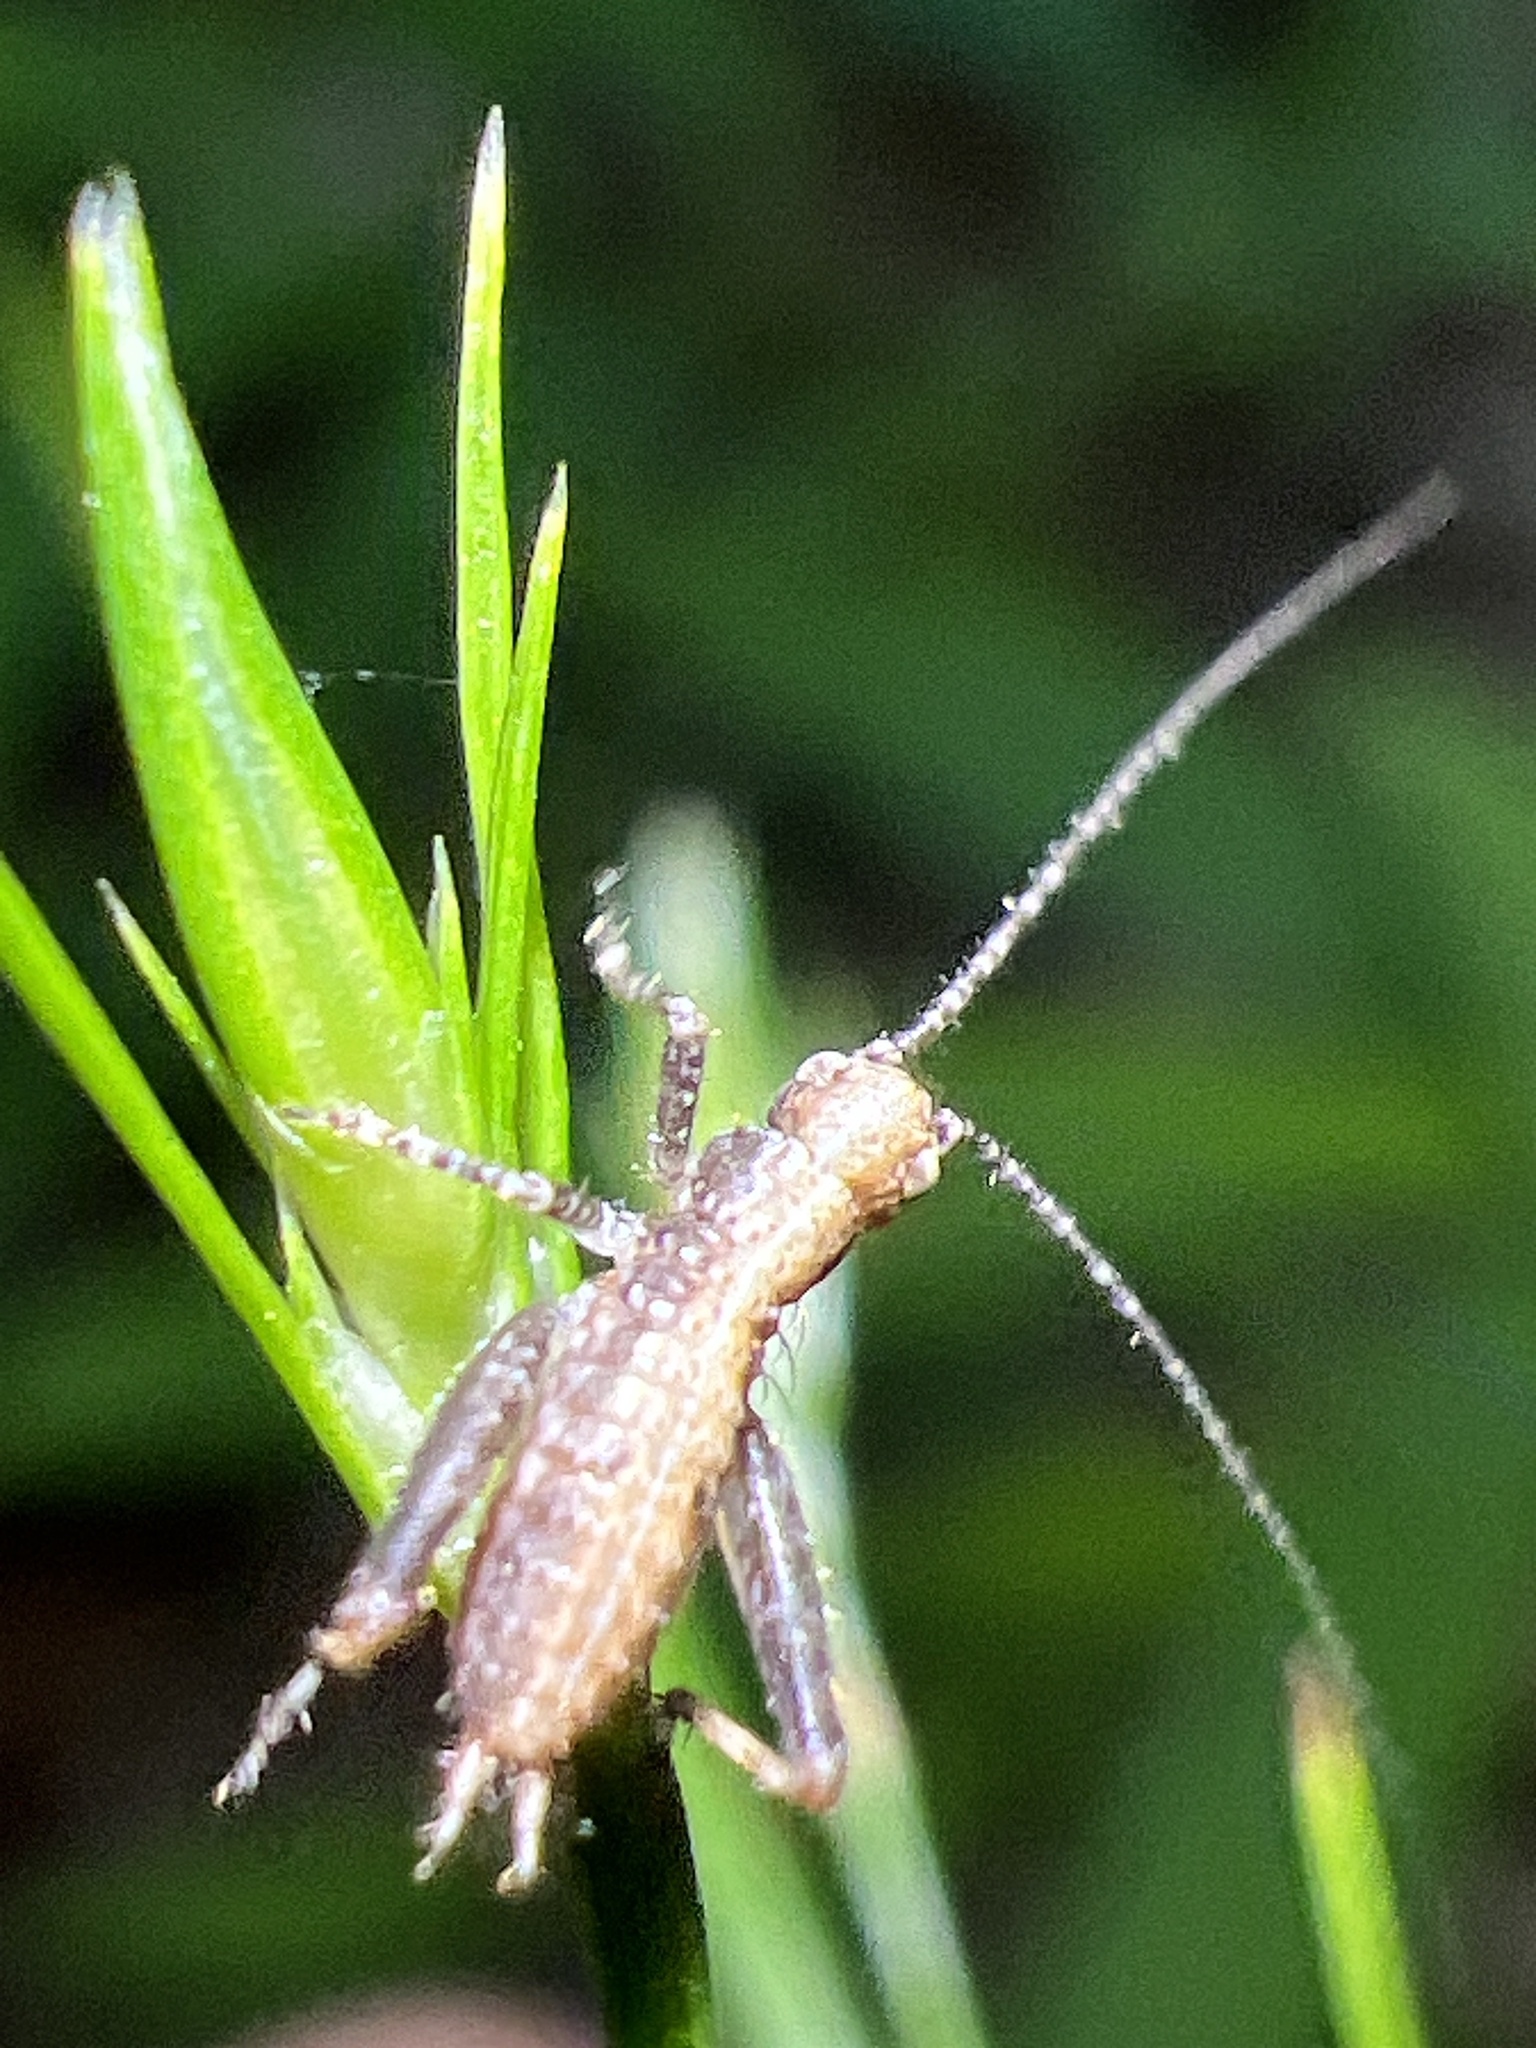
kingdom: Animalia
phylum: Arthropoda
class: Insecta
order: Orthoptera
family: Gryllidae
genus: Hapithus
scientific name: Hapithus saltator
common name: Jumping bush cricket
